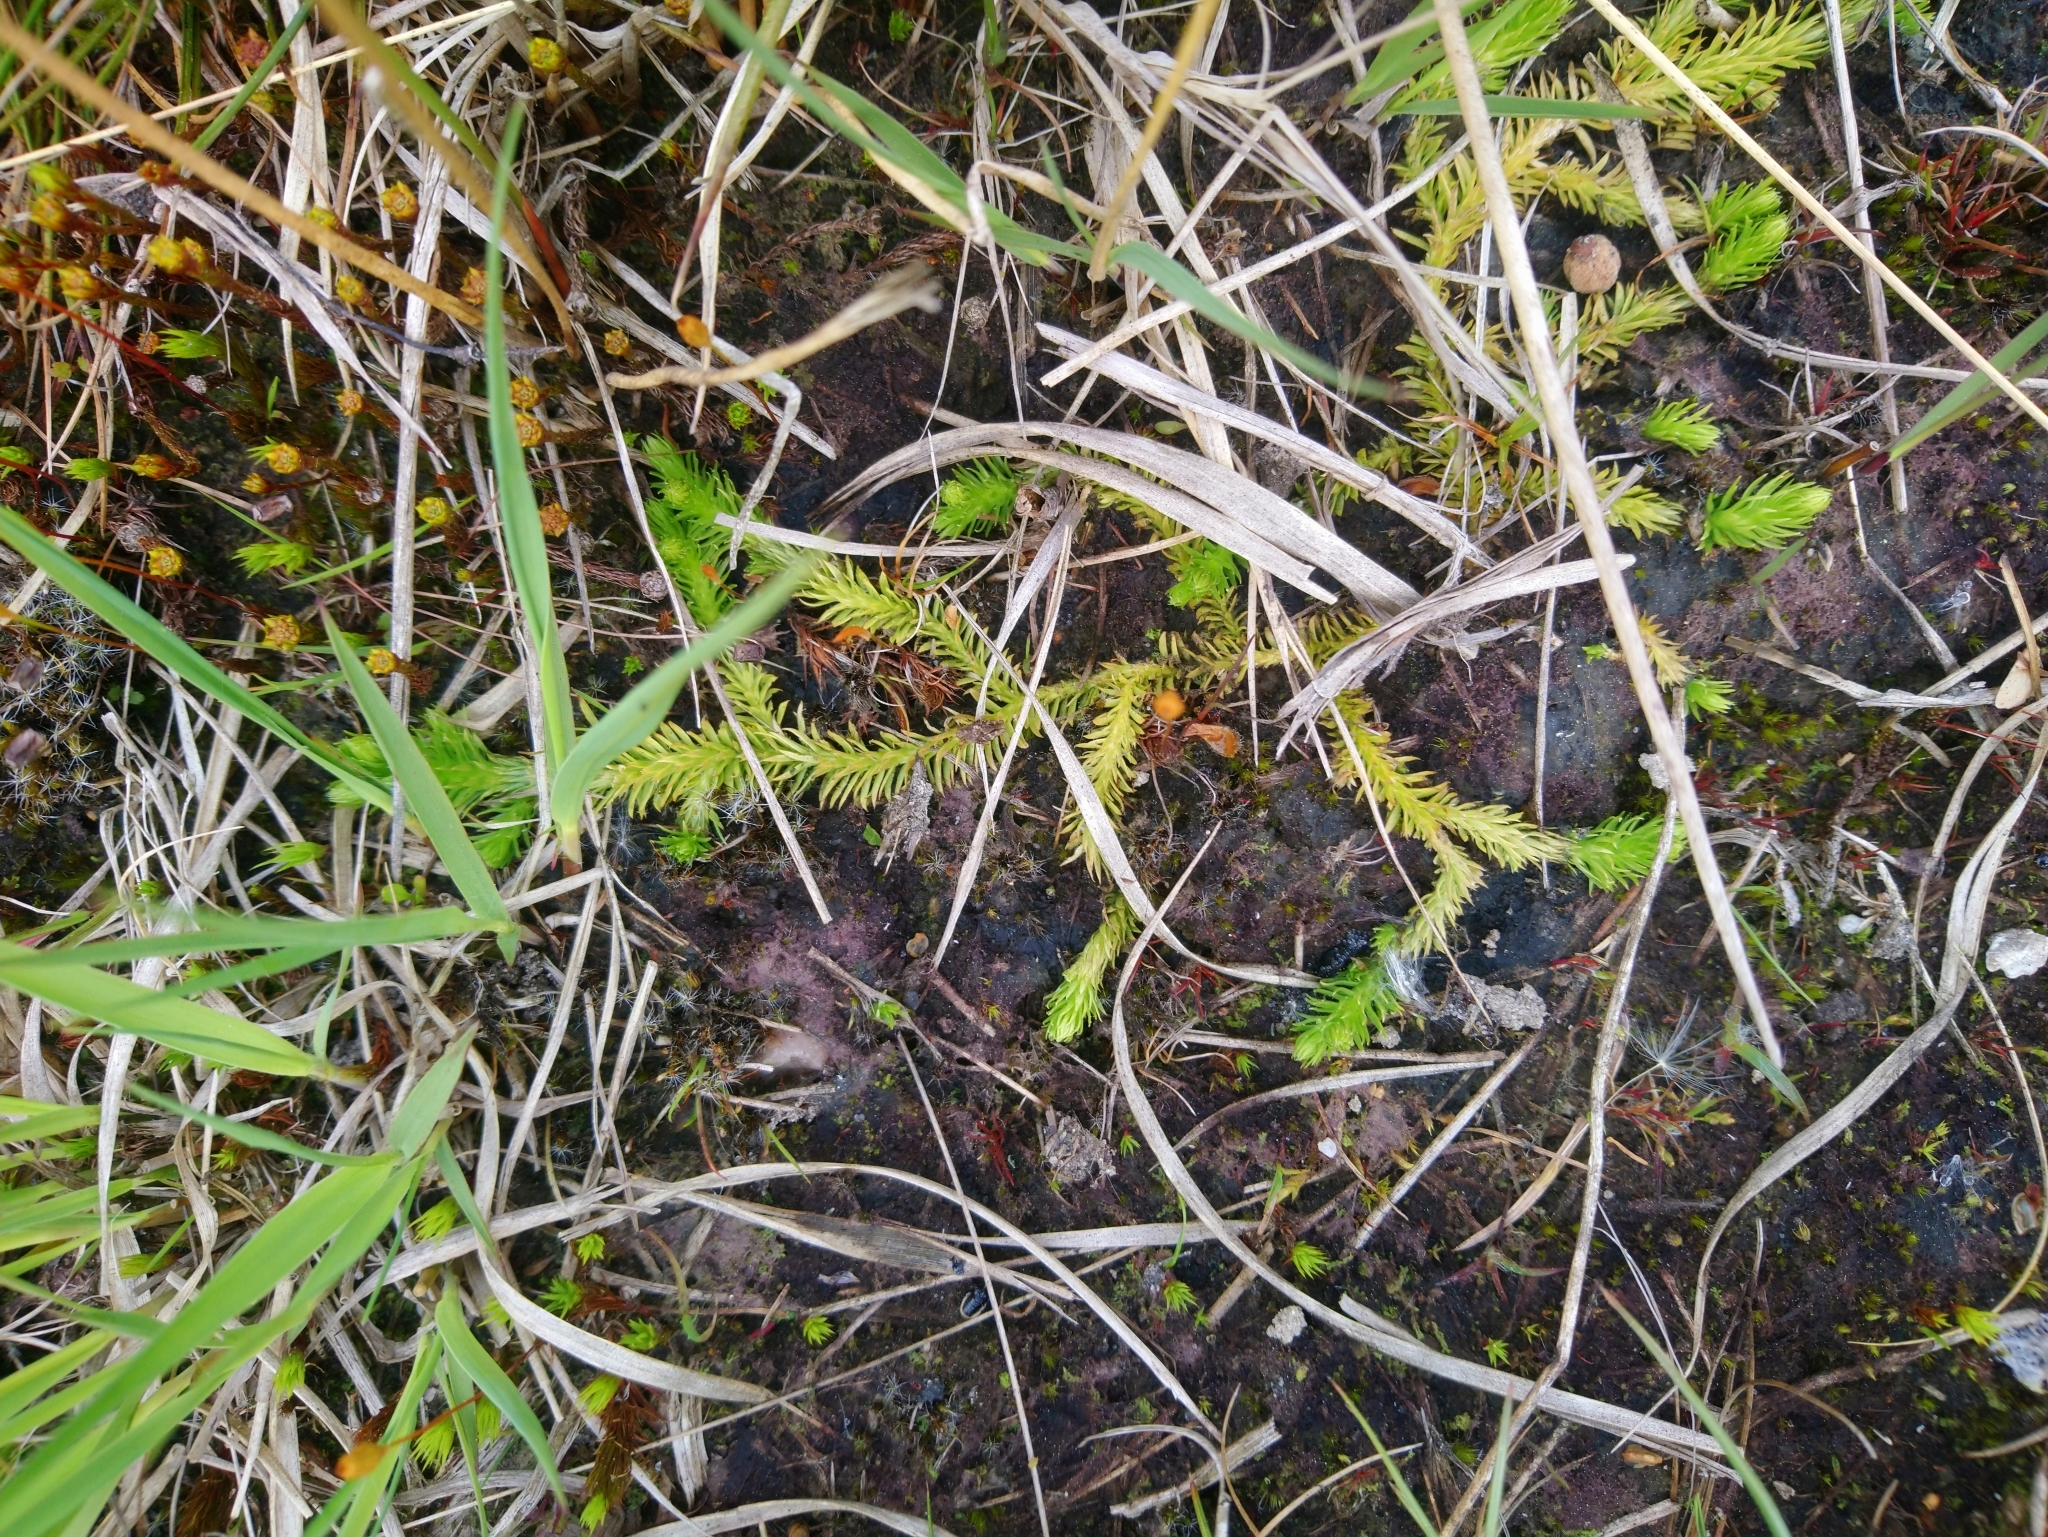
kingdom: Plantae
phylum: Tracheophyta
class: Lycopodiopsida
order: Lycopodiales
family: Lycopodiaceae
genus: Lycopodiella
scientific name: Lycopodiella inundata
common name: Marsh clubmoss
